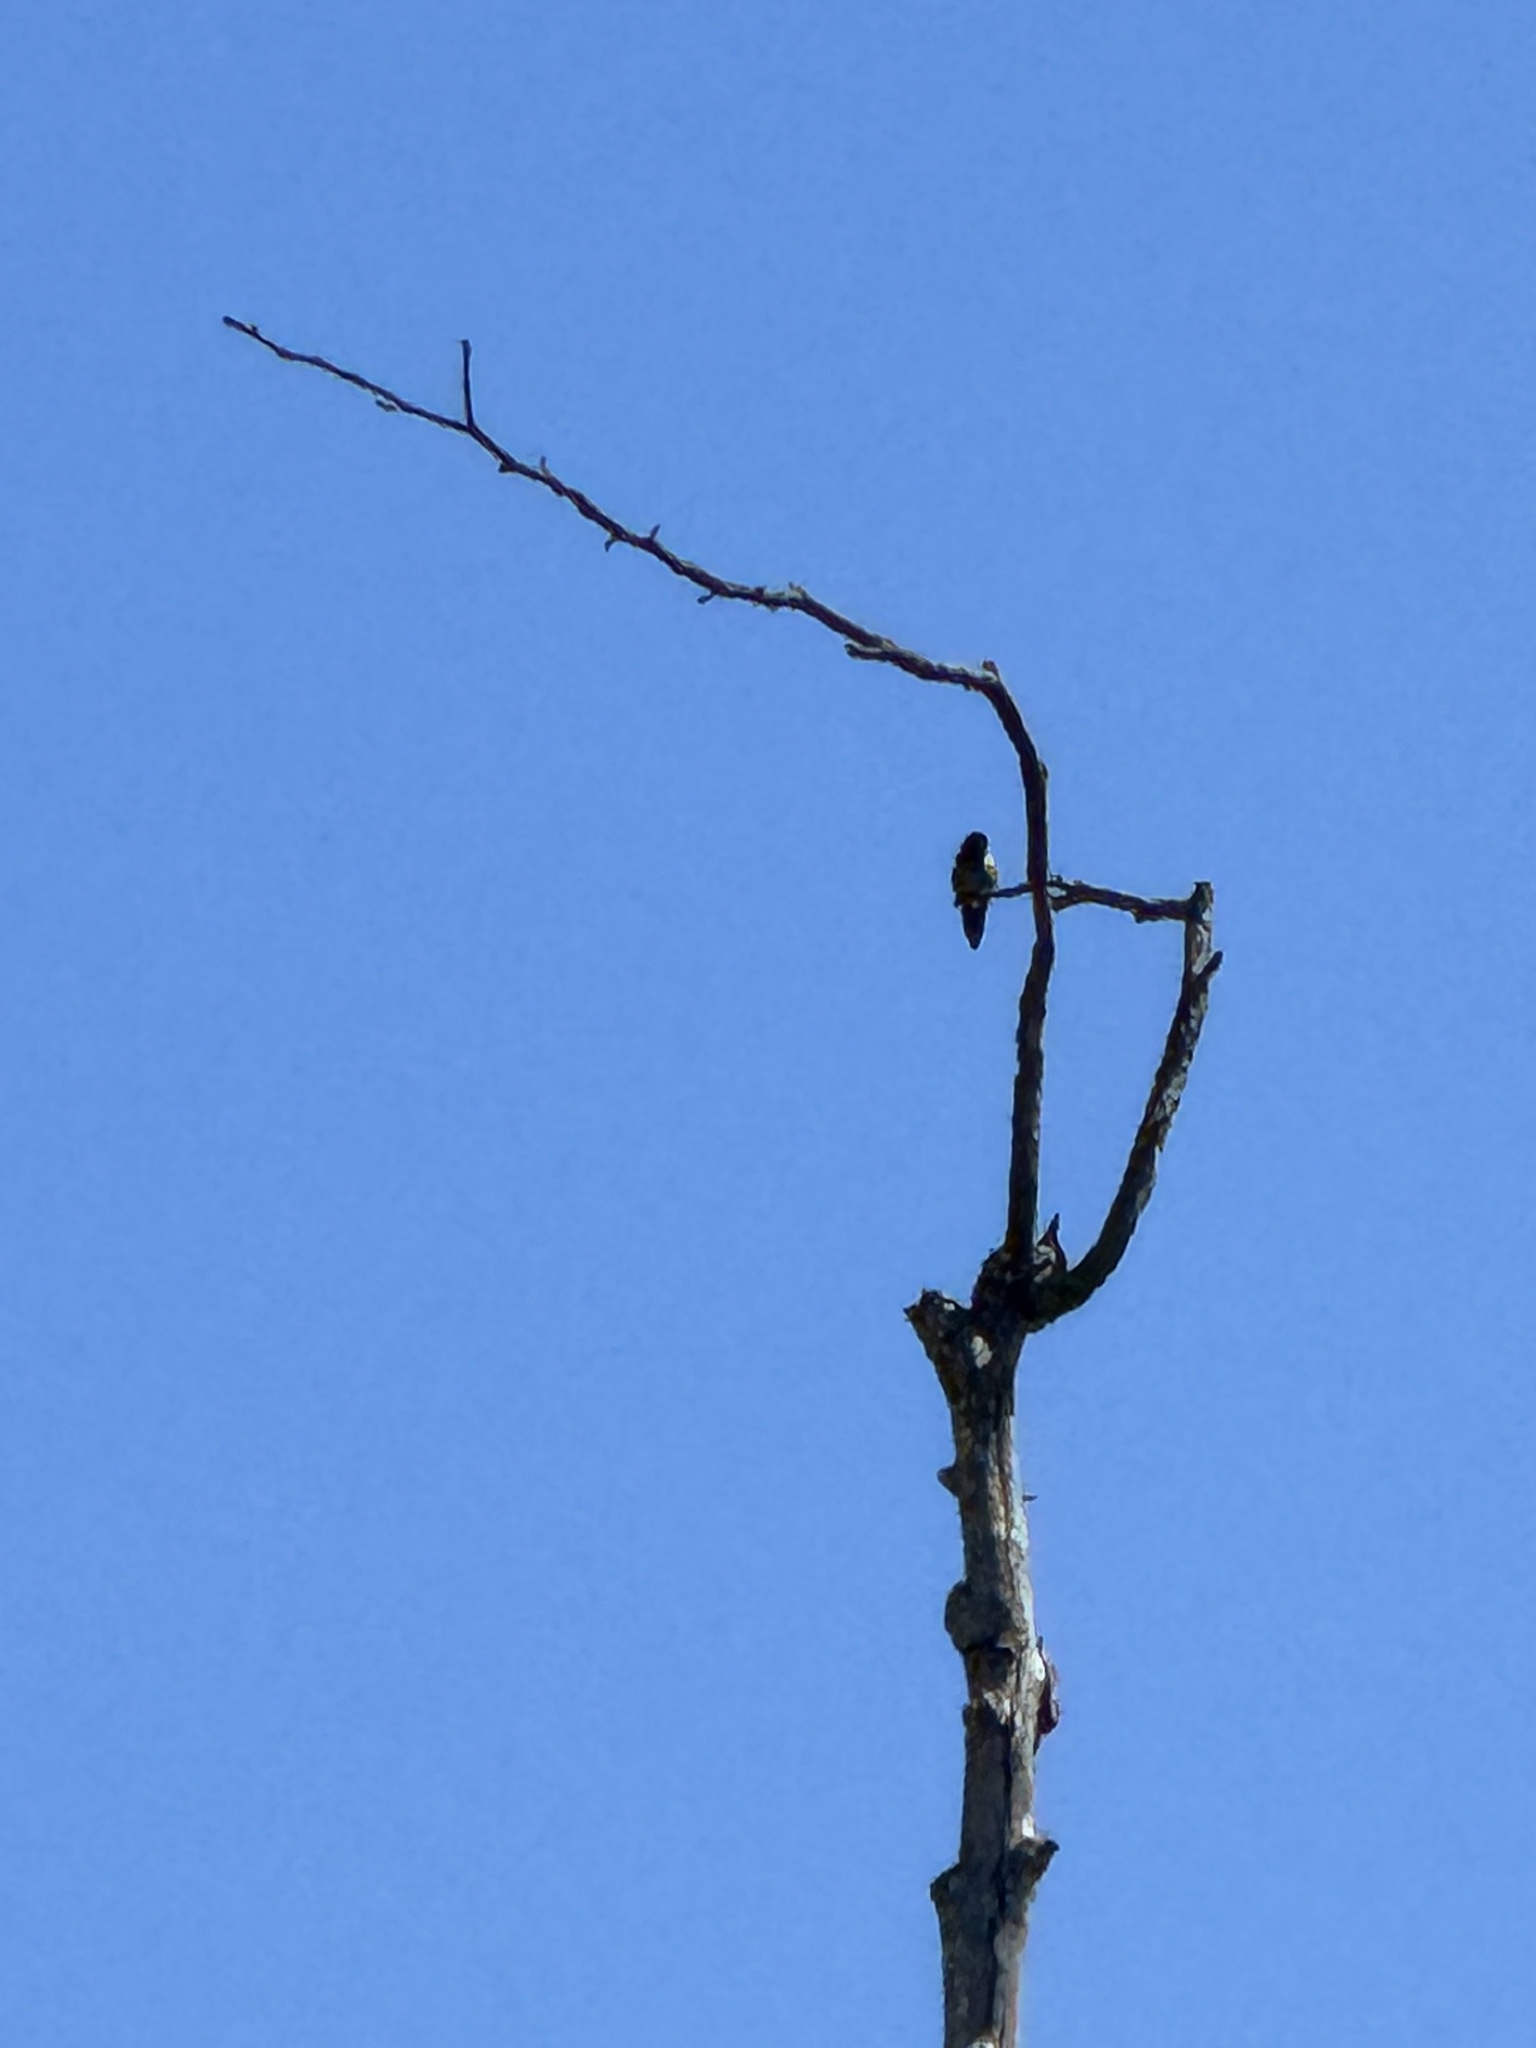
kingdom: Animalia
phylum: Chordata
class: Aves
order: Apodiformes
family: Trochilidae
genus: Calypte
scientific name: Calypte anna
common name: Anna's hummingbird
